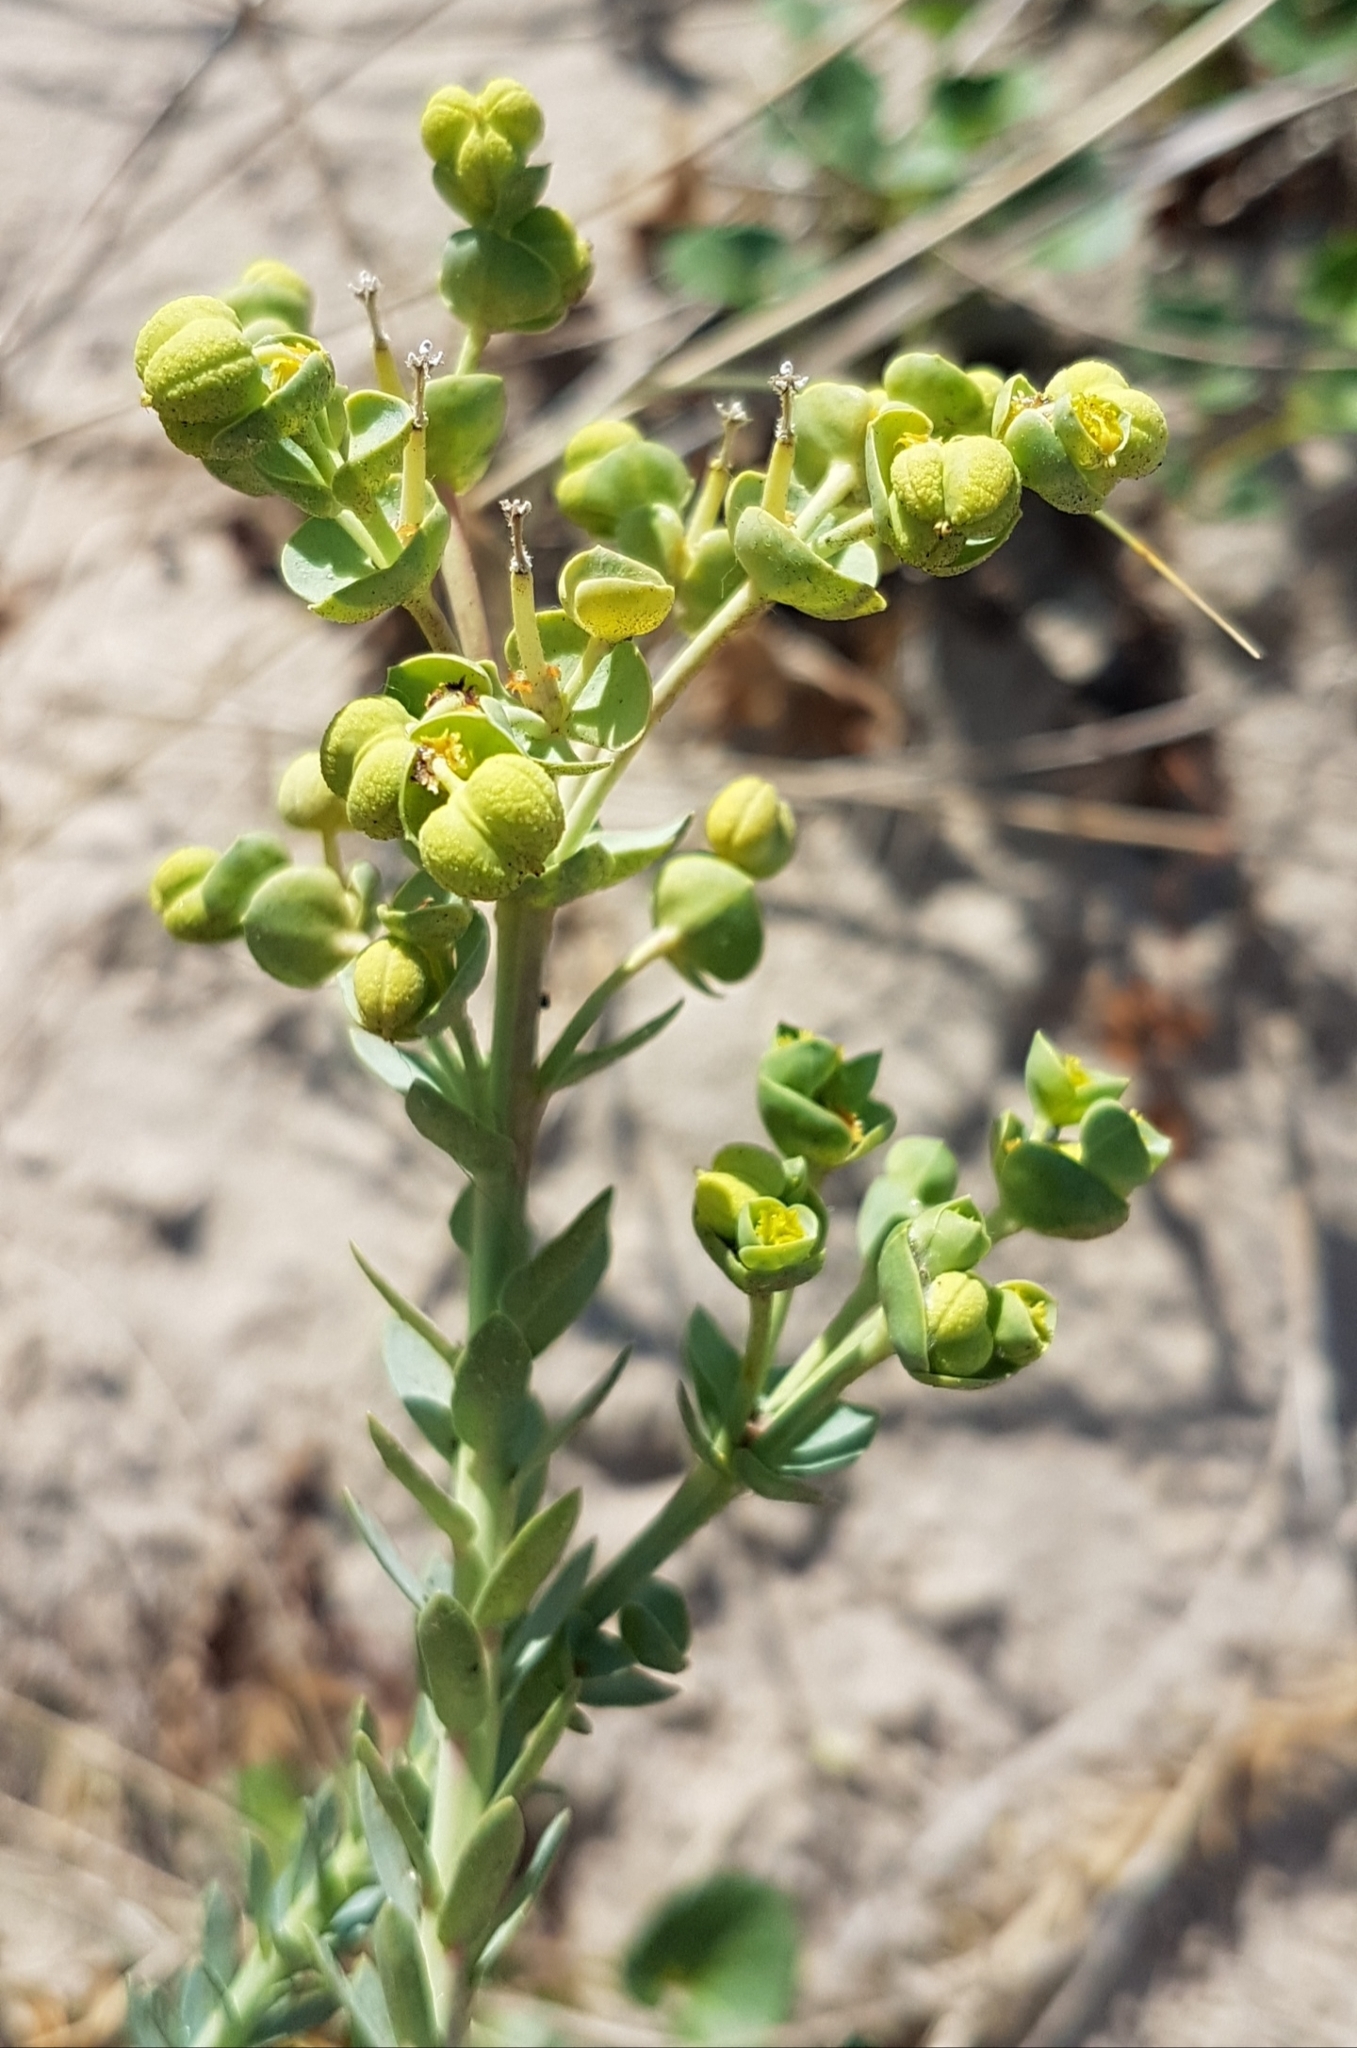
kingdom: Plantae
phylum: Tracheophyta
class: Magnoliopsida
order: Malpighiales
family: Euphorbiaceae
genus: Euphorbia
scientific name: Euphorbia paralias
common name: Sea spurge
